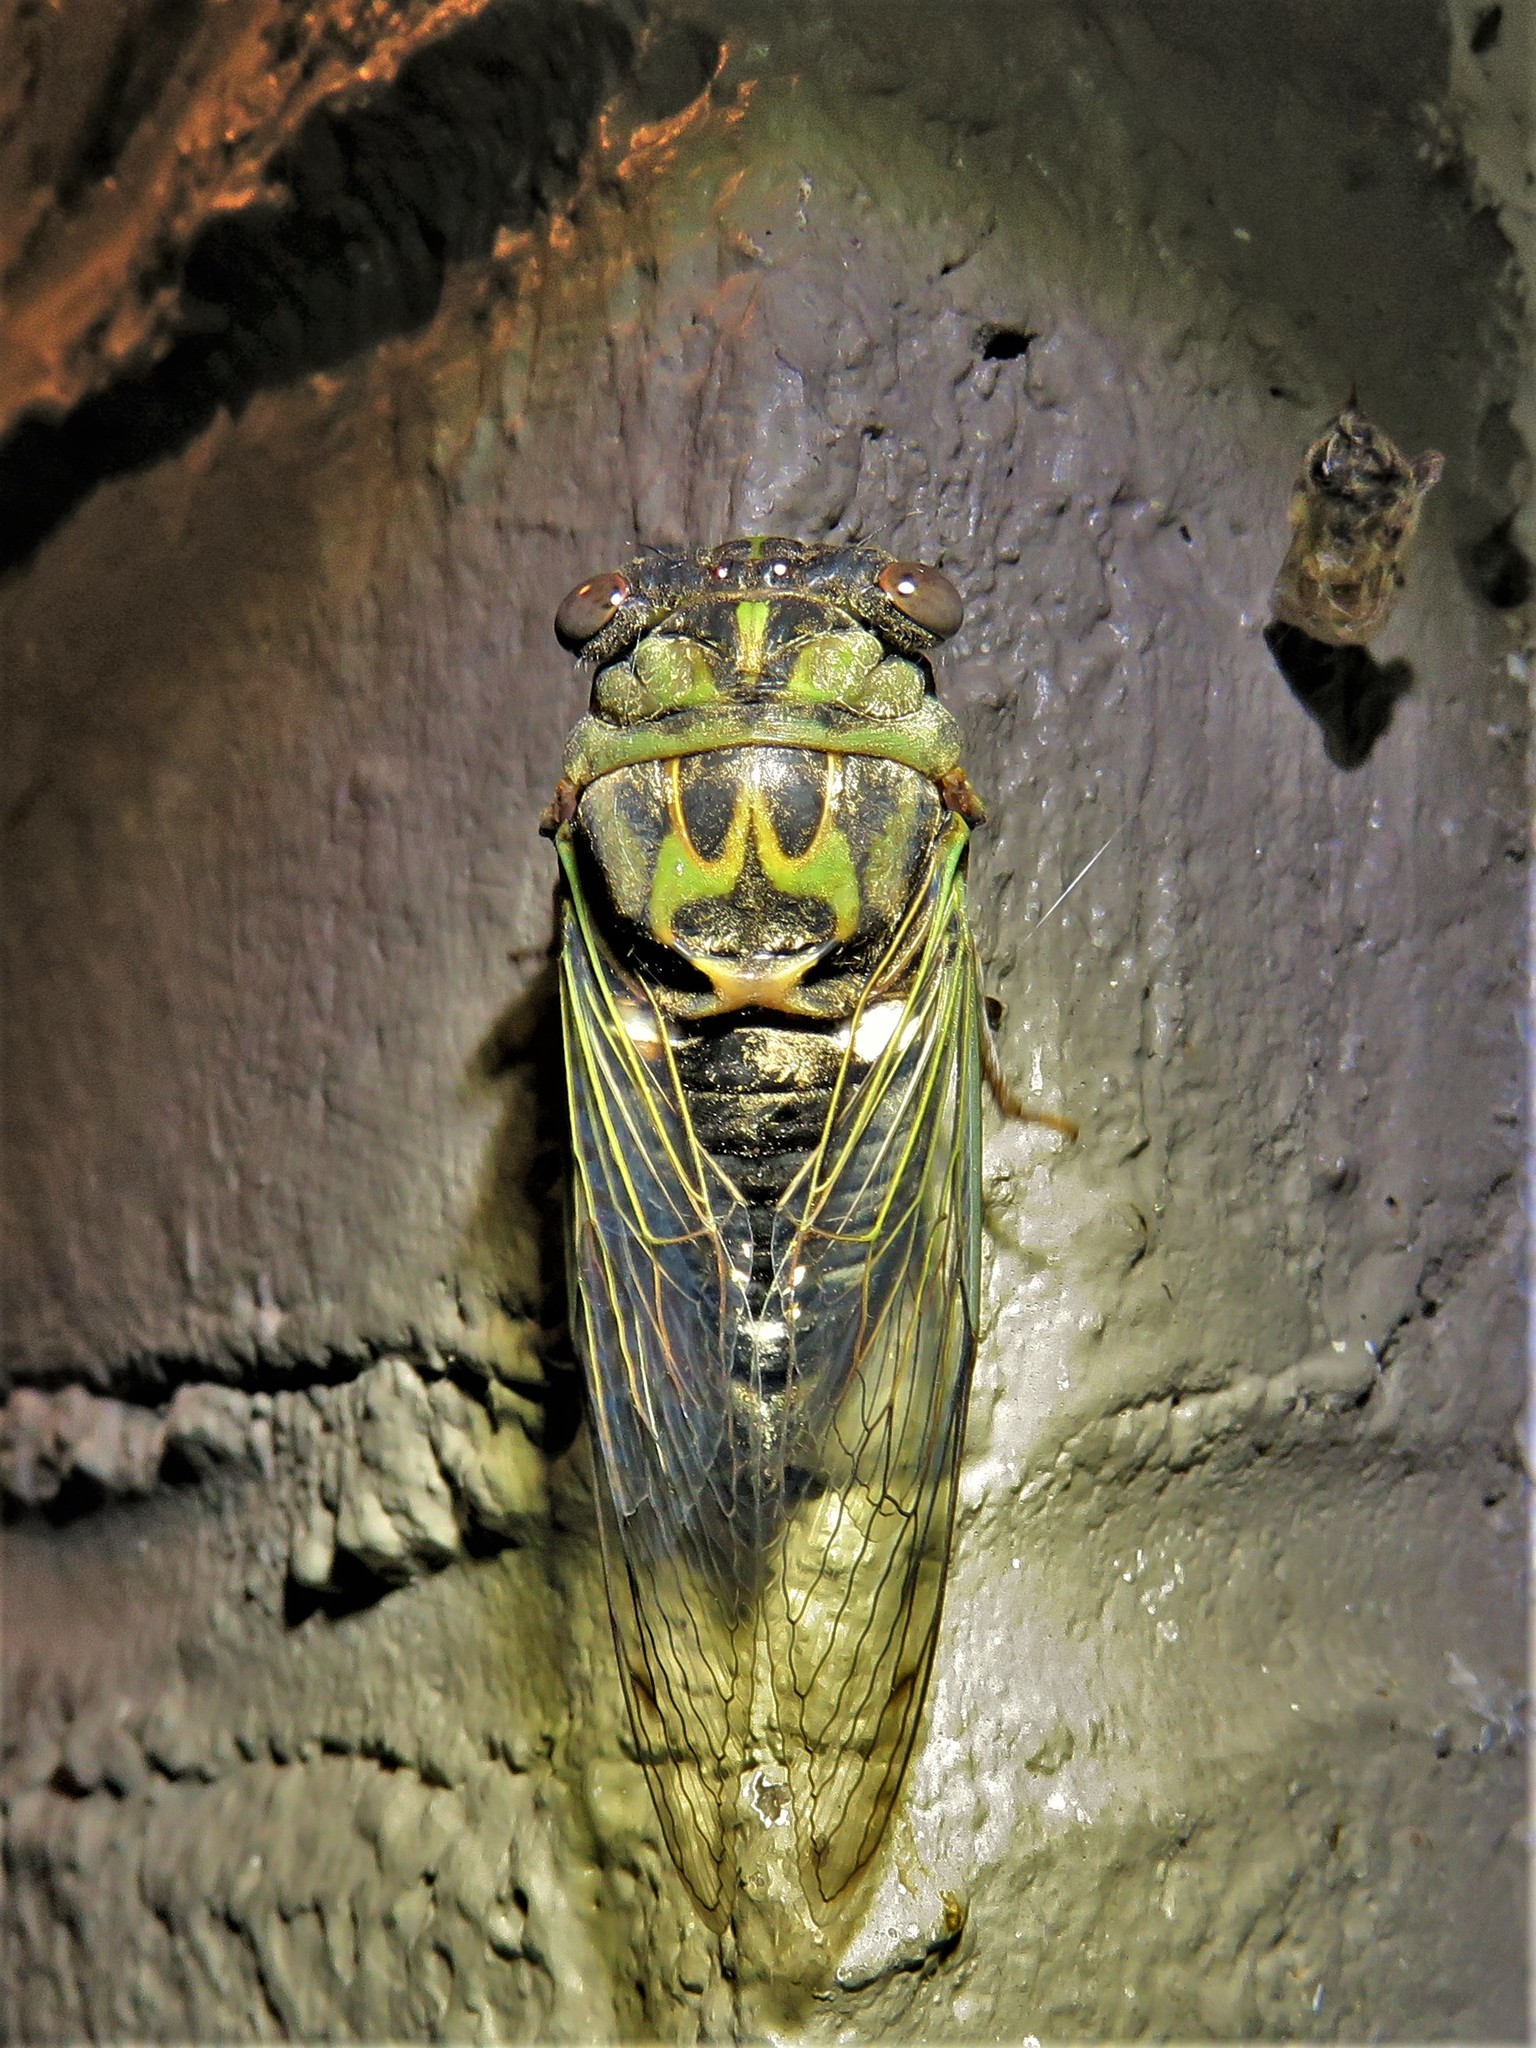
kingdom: Animalia
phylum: Arthropoda
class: Insecta
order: Hemiptera
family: Cicadidae
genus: Neotibicen
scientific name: Neotibicen pruinosus
